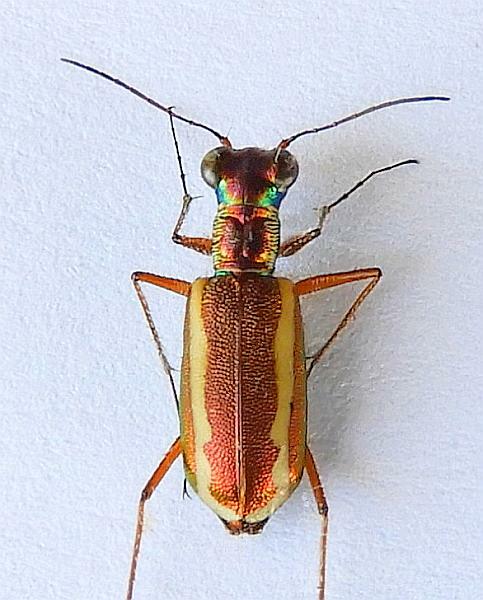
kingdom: Animalia
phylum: Arthropoda
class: Insecta
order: Coleoptera
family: Carabidae
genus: Cylindera
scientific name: Cylindera lemniscata
